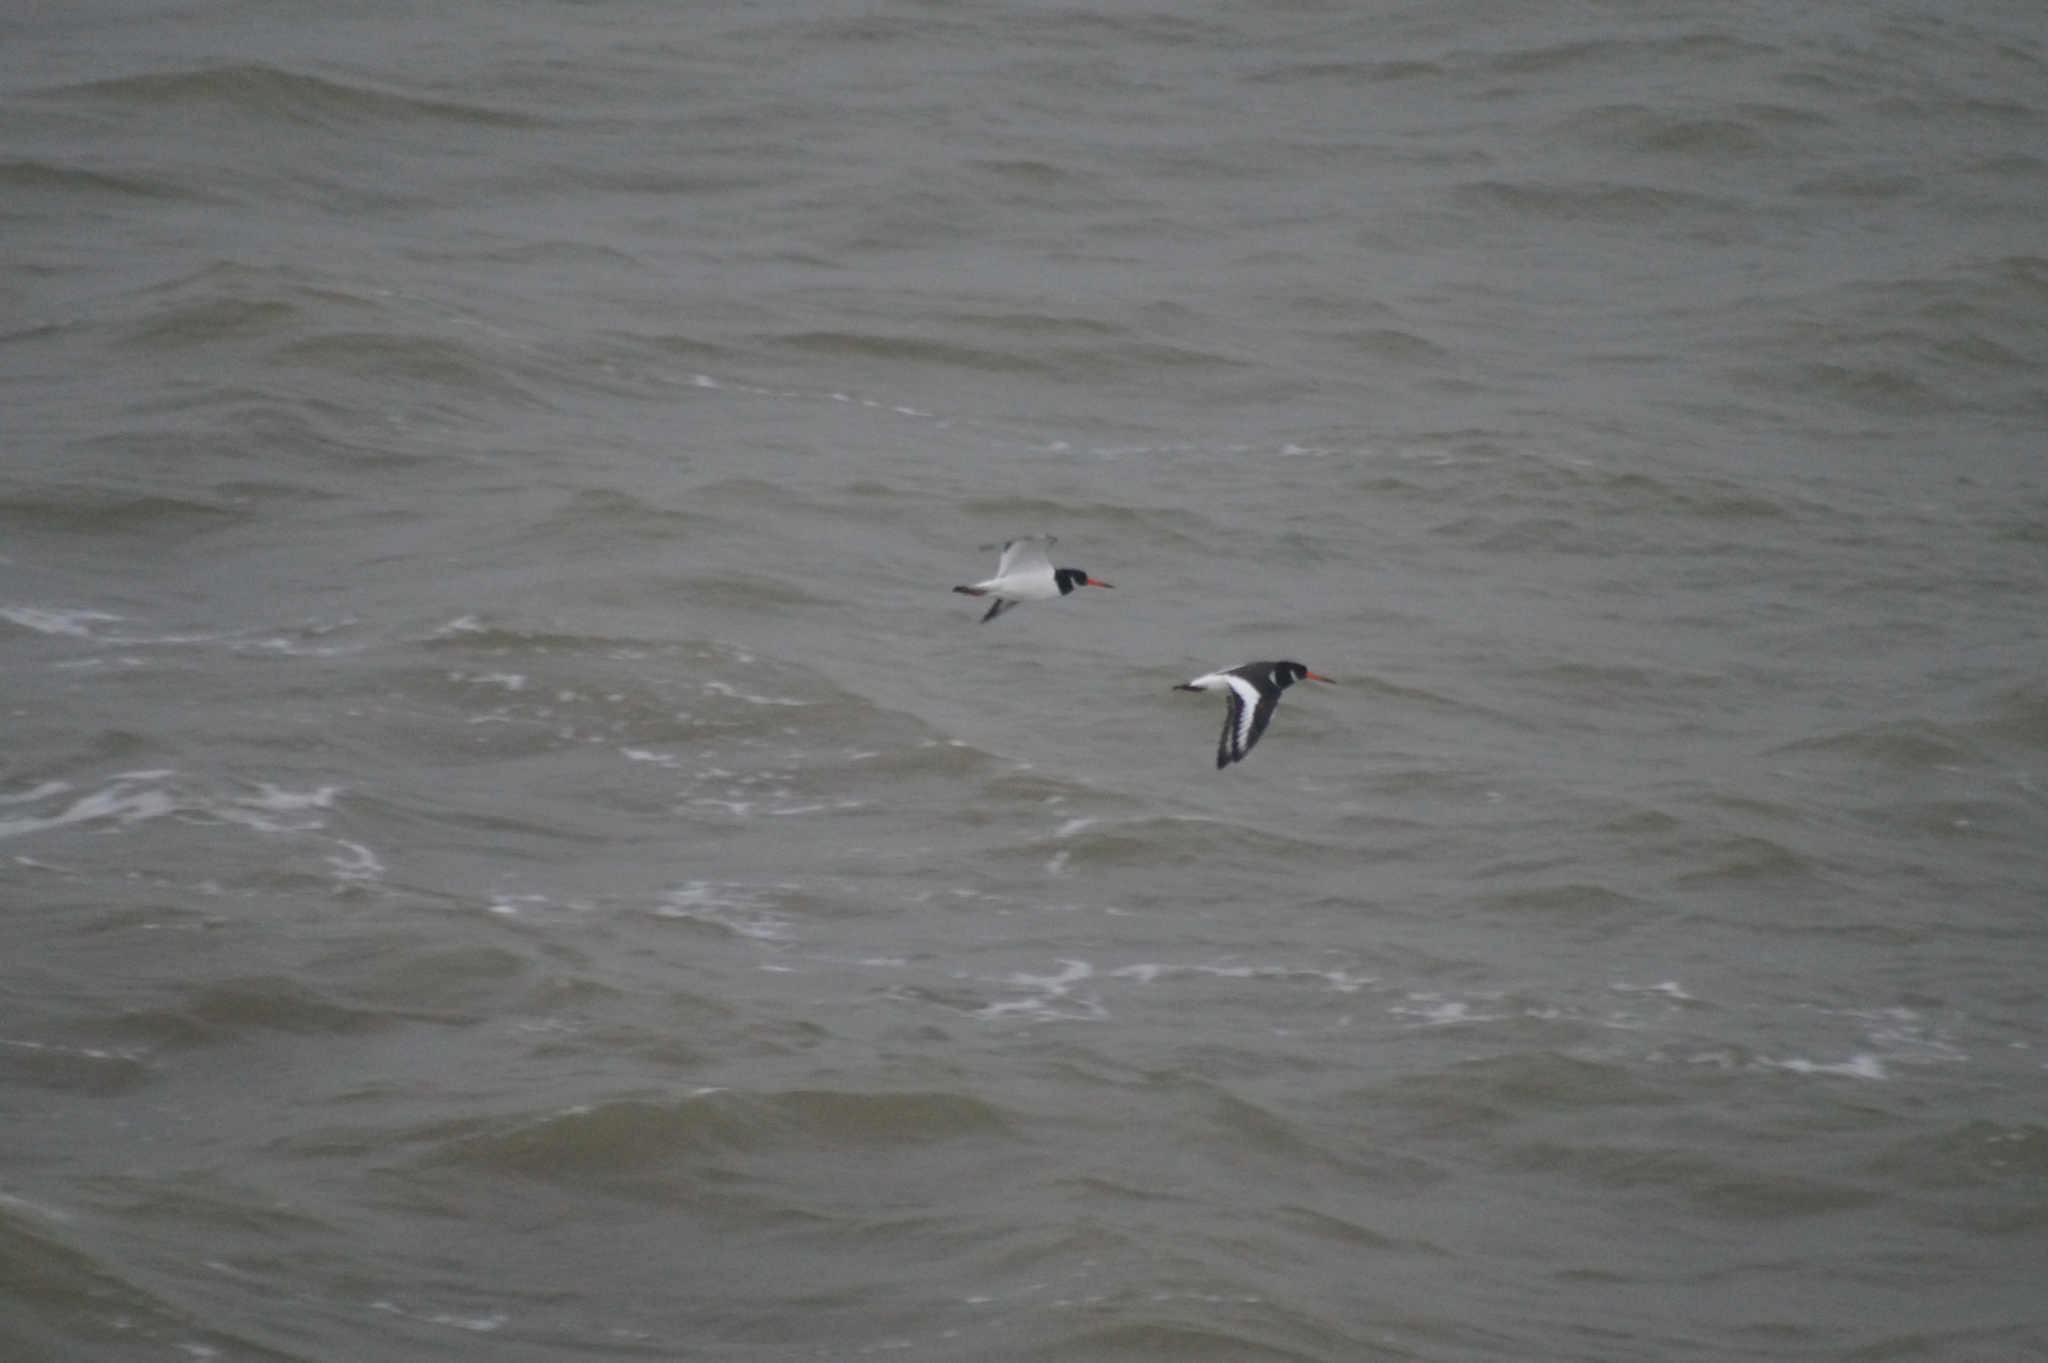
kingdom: Animalia
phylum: Chordata
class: Aves
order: Charadriiformes
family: Haematopodidae
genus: Haematopus
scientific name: Haematopus ostralegus
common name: Eurasian oystercatcher
